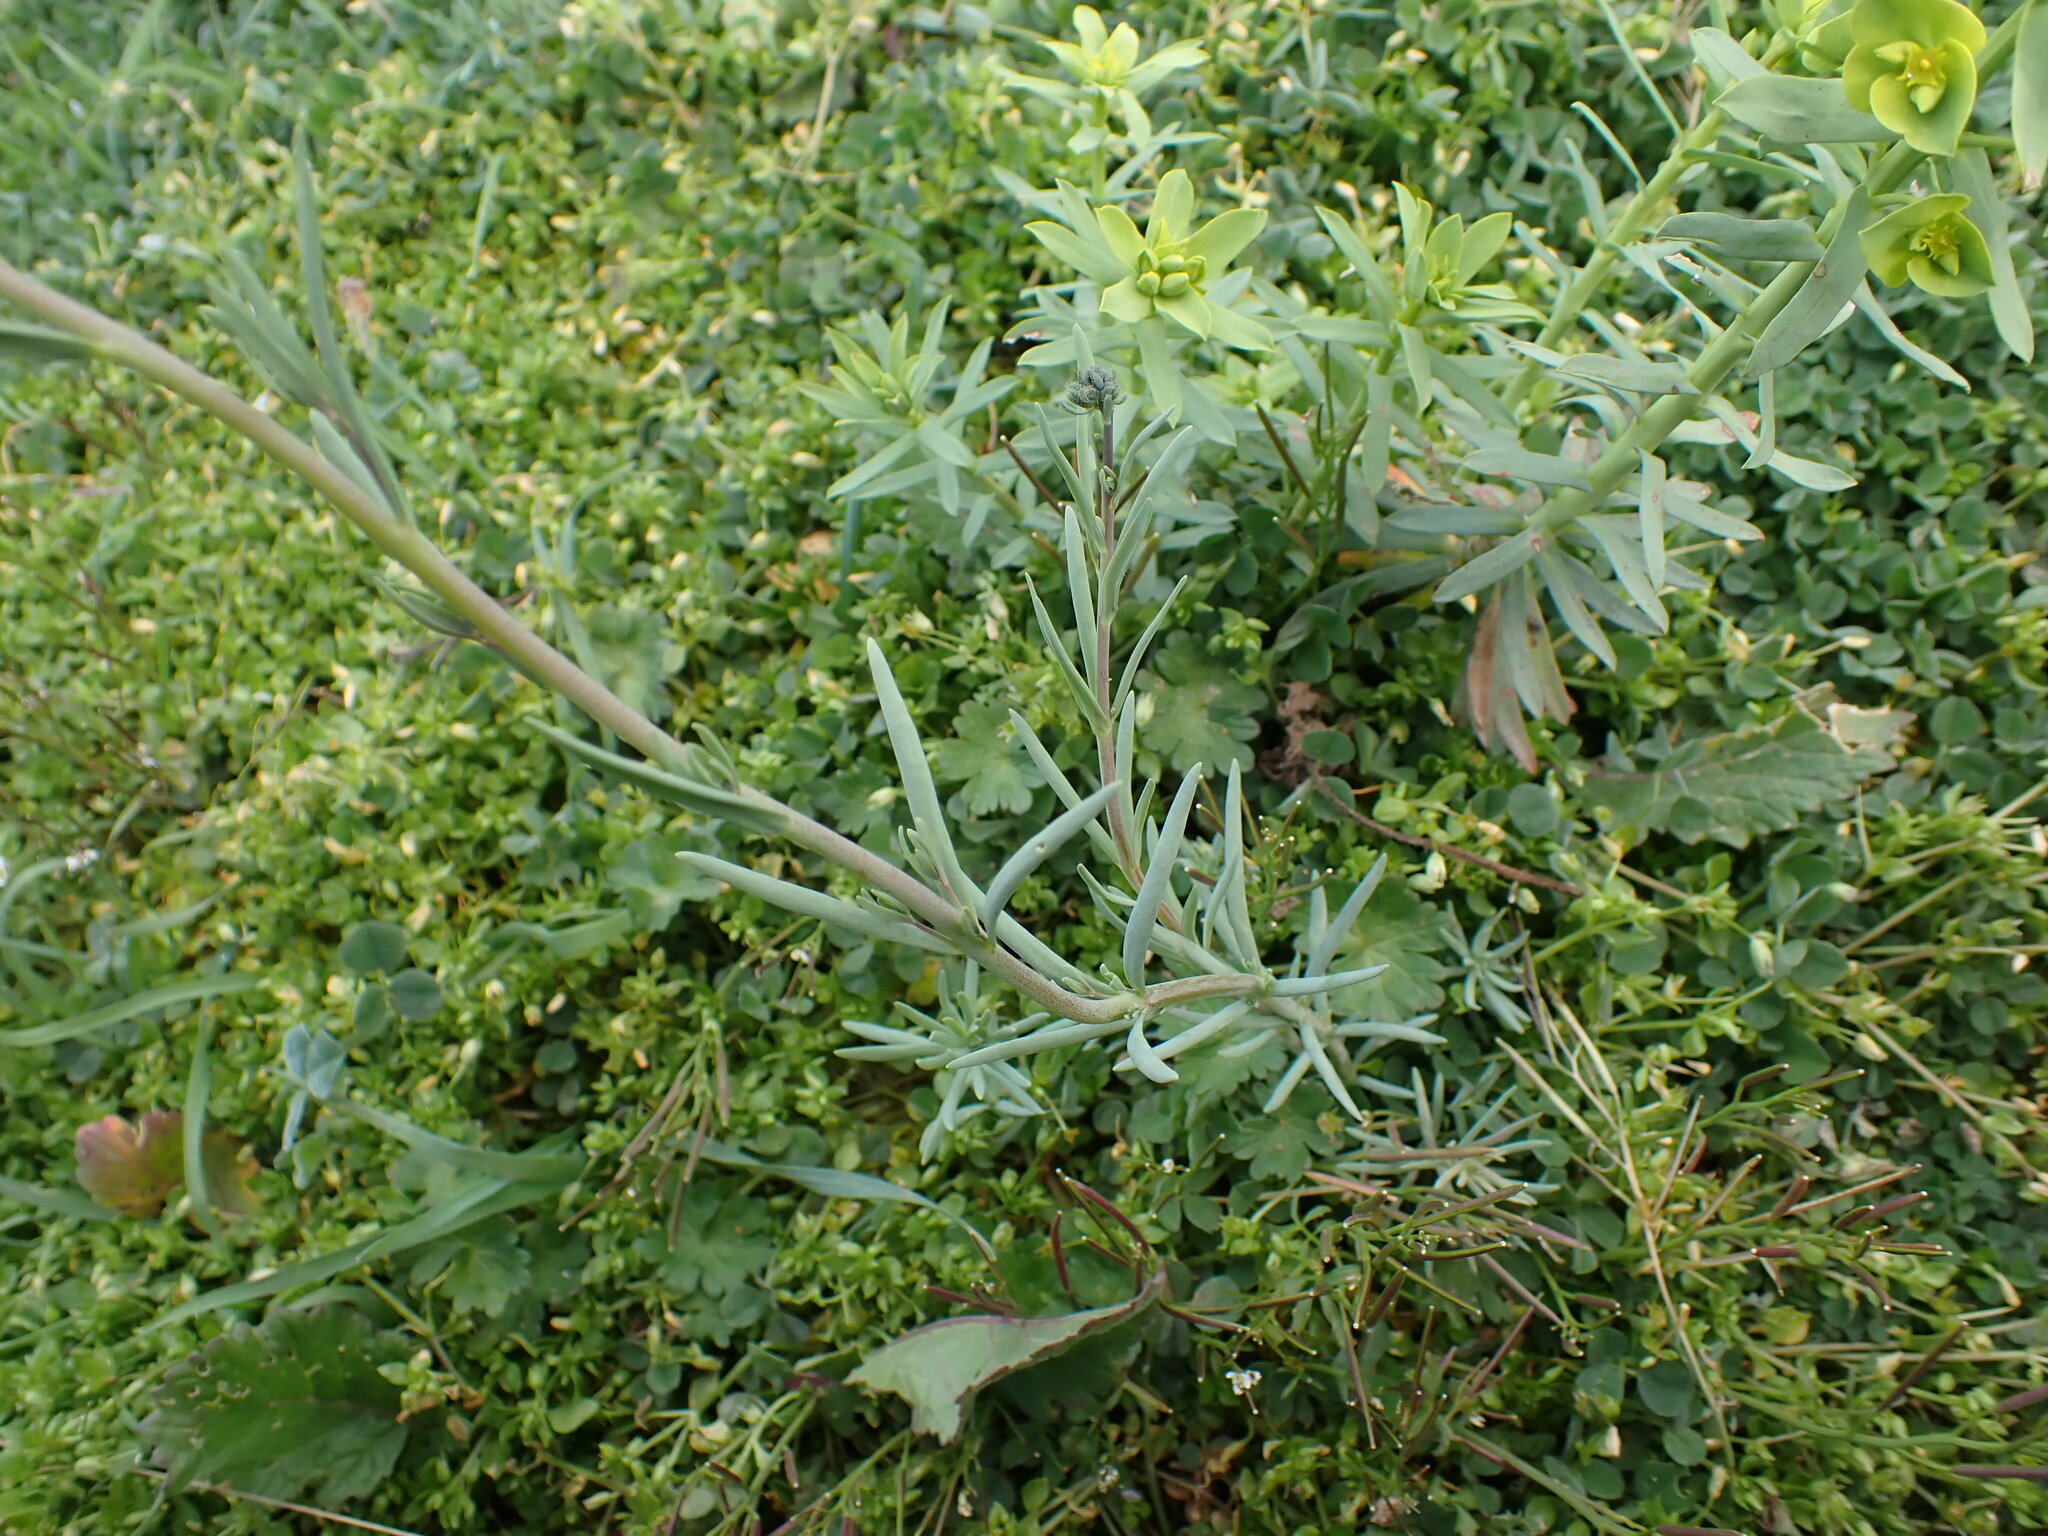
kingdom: Plantae
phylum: Tracheophyta
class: Magnoliopsida
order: Lamiales
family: Plantaginaceae
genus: Linaria
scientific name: Linaria simplex
